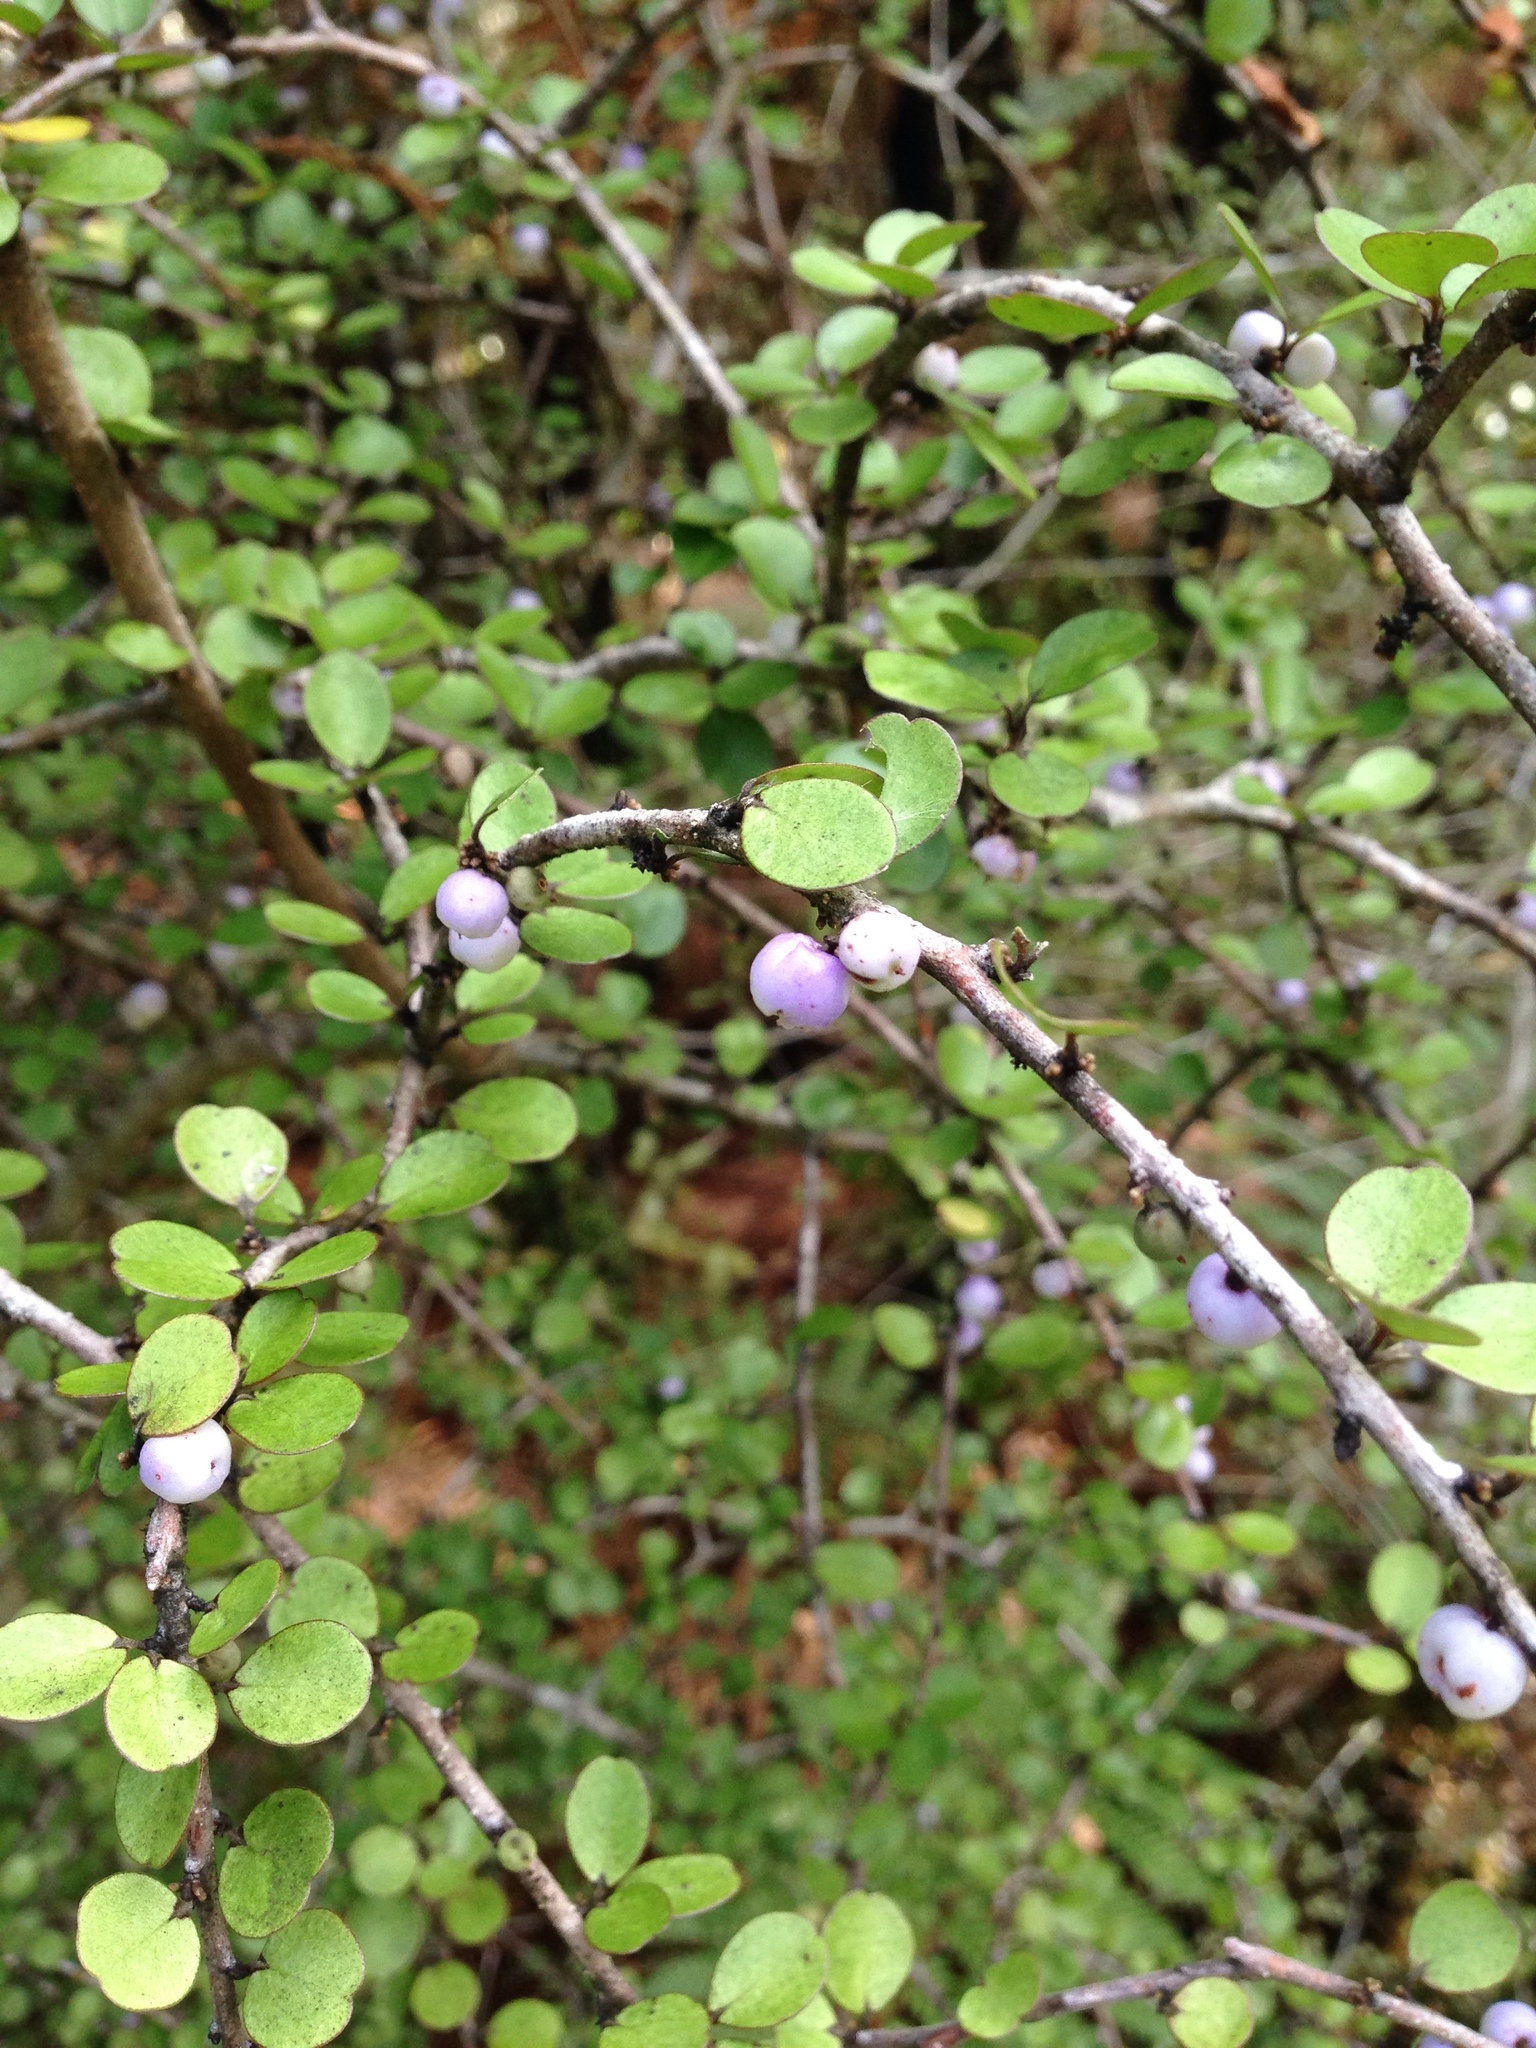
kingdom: Plantae
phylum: Tracheophyta
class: Magnoliopsida
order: Ericales
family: Primulaceae
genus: Myrsine
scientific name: Myrsine divaricata
